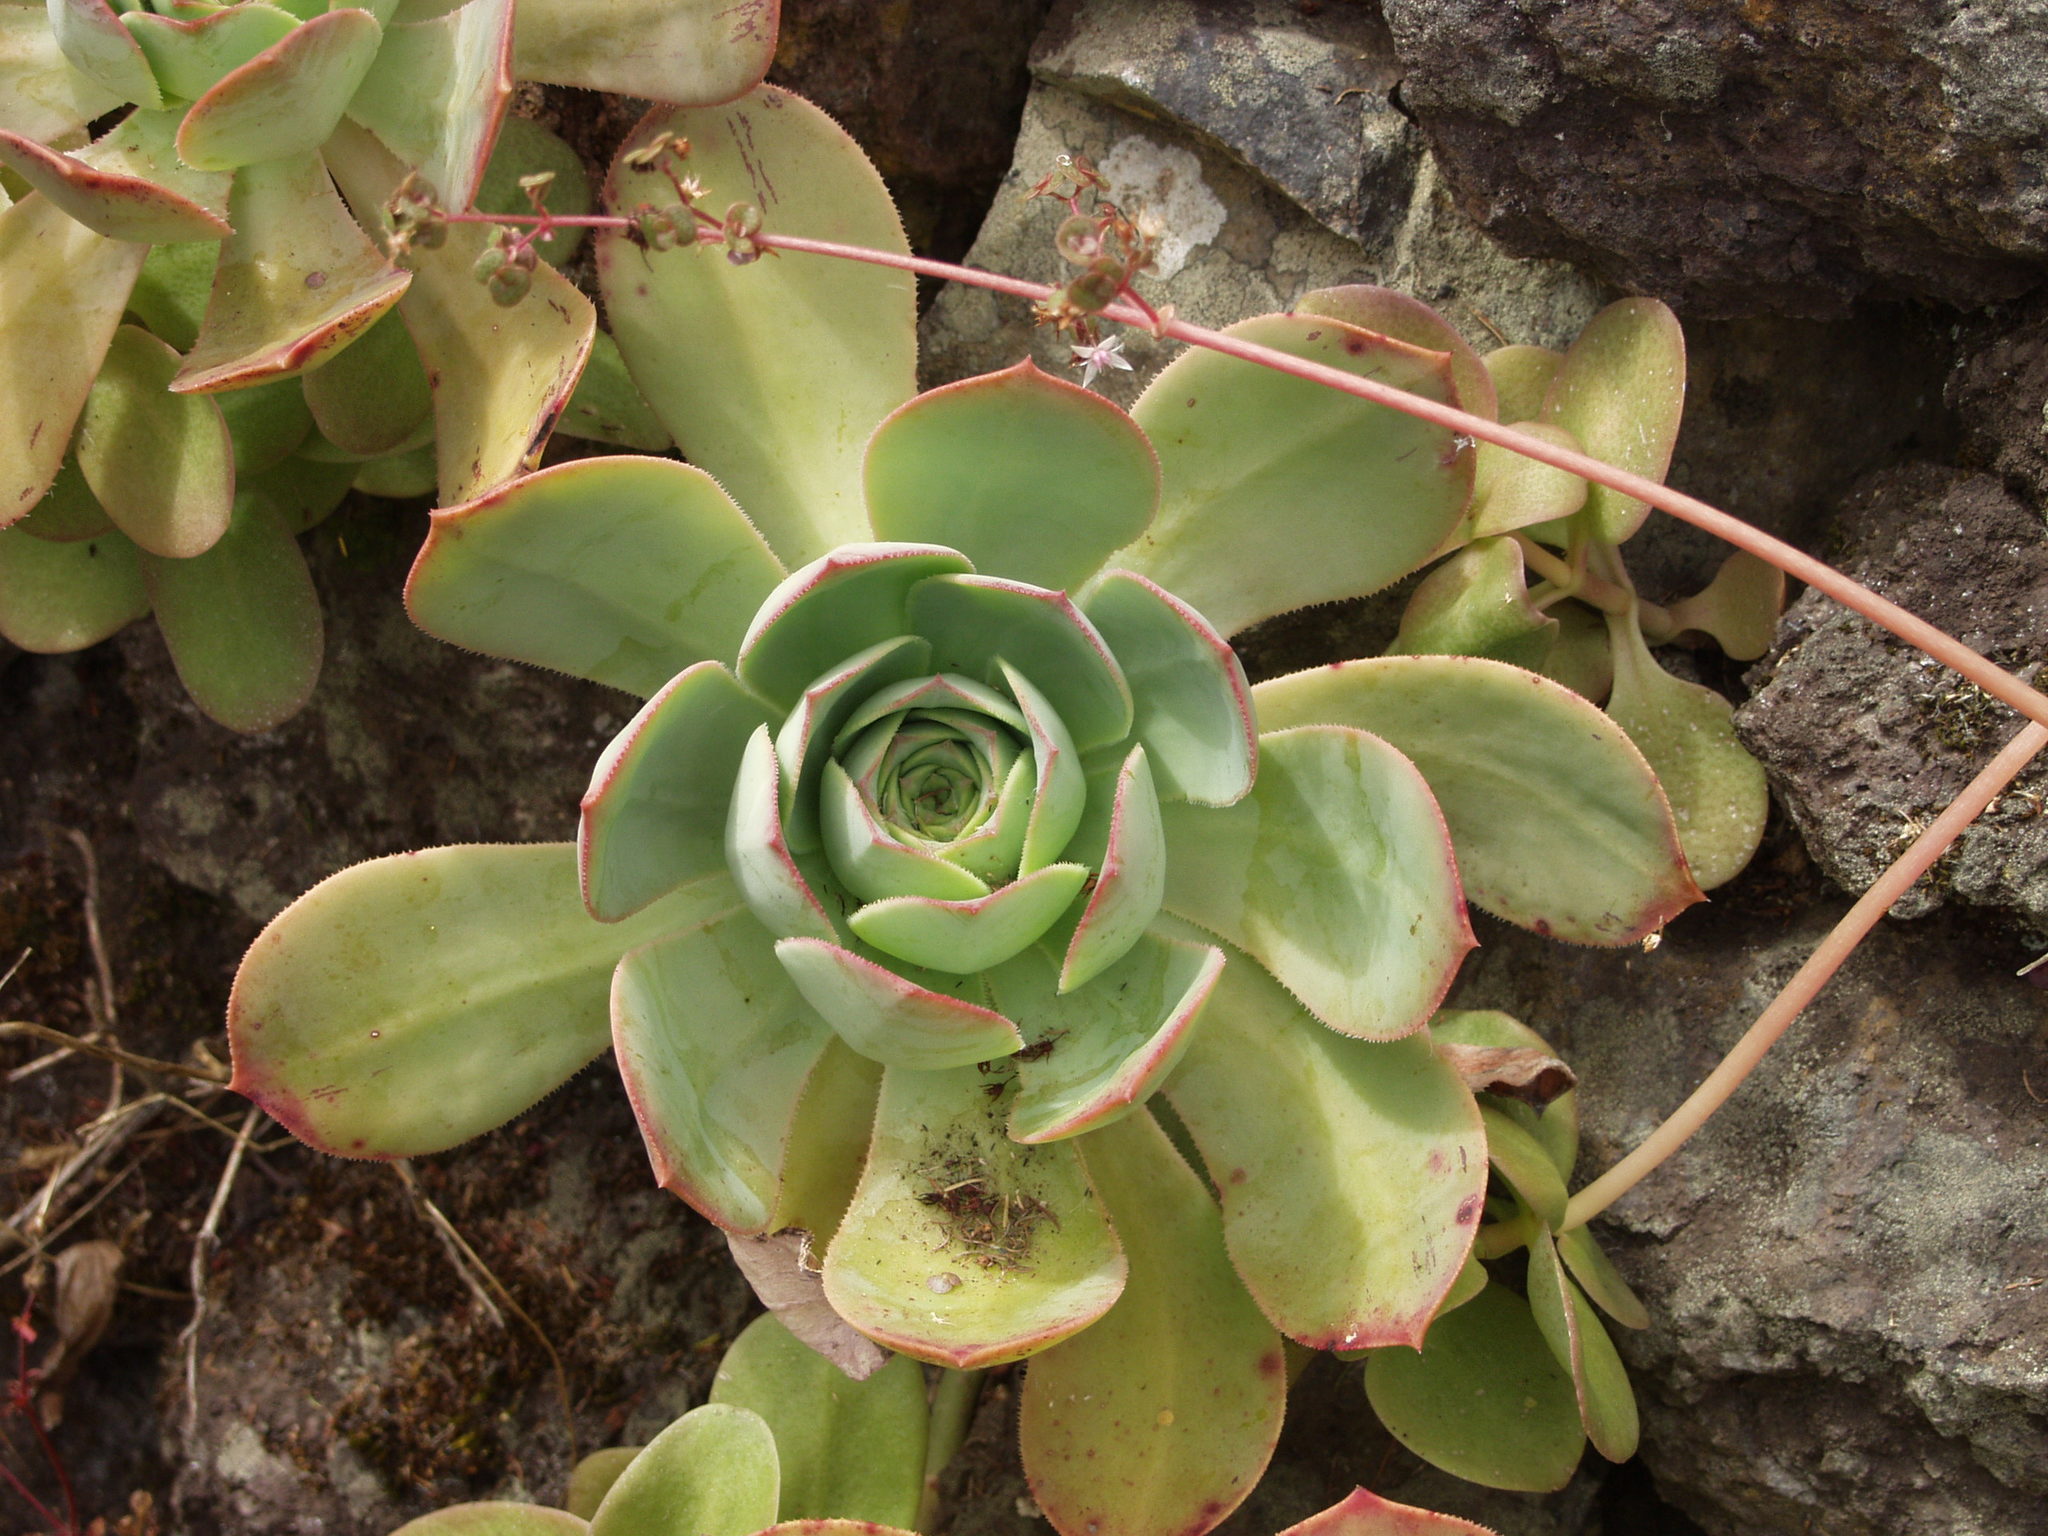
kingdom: Plantae
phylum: Tracheophyta
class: Magnoliopsida
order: Saxifragales
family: Crassulaceae
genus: Aeonium
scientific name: Aeonium hierrense
